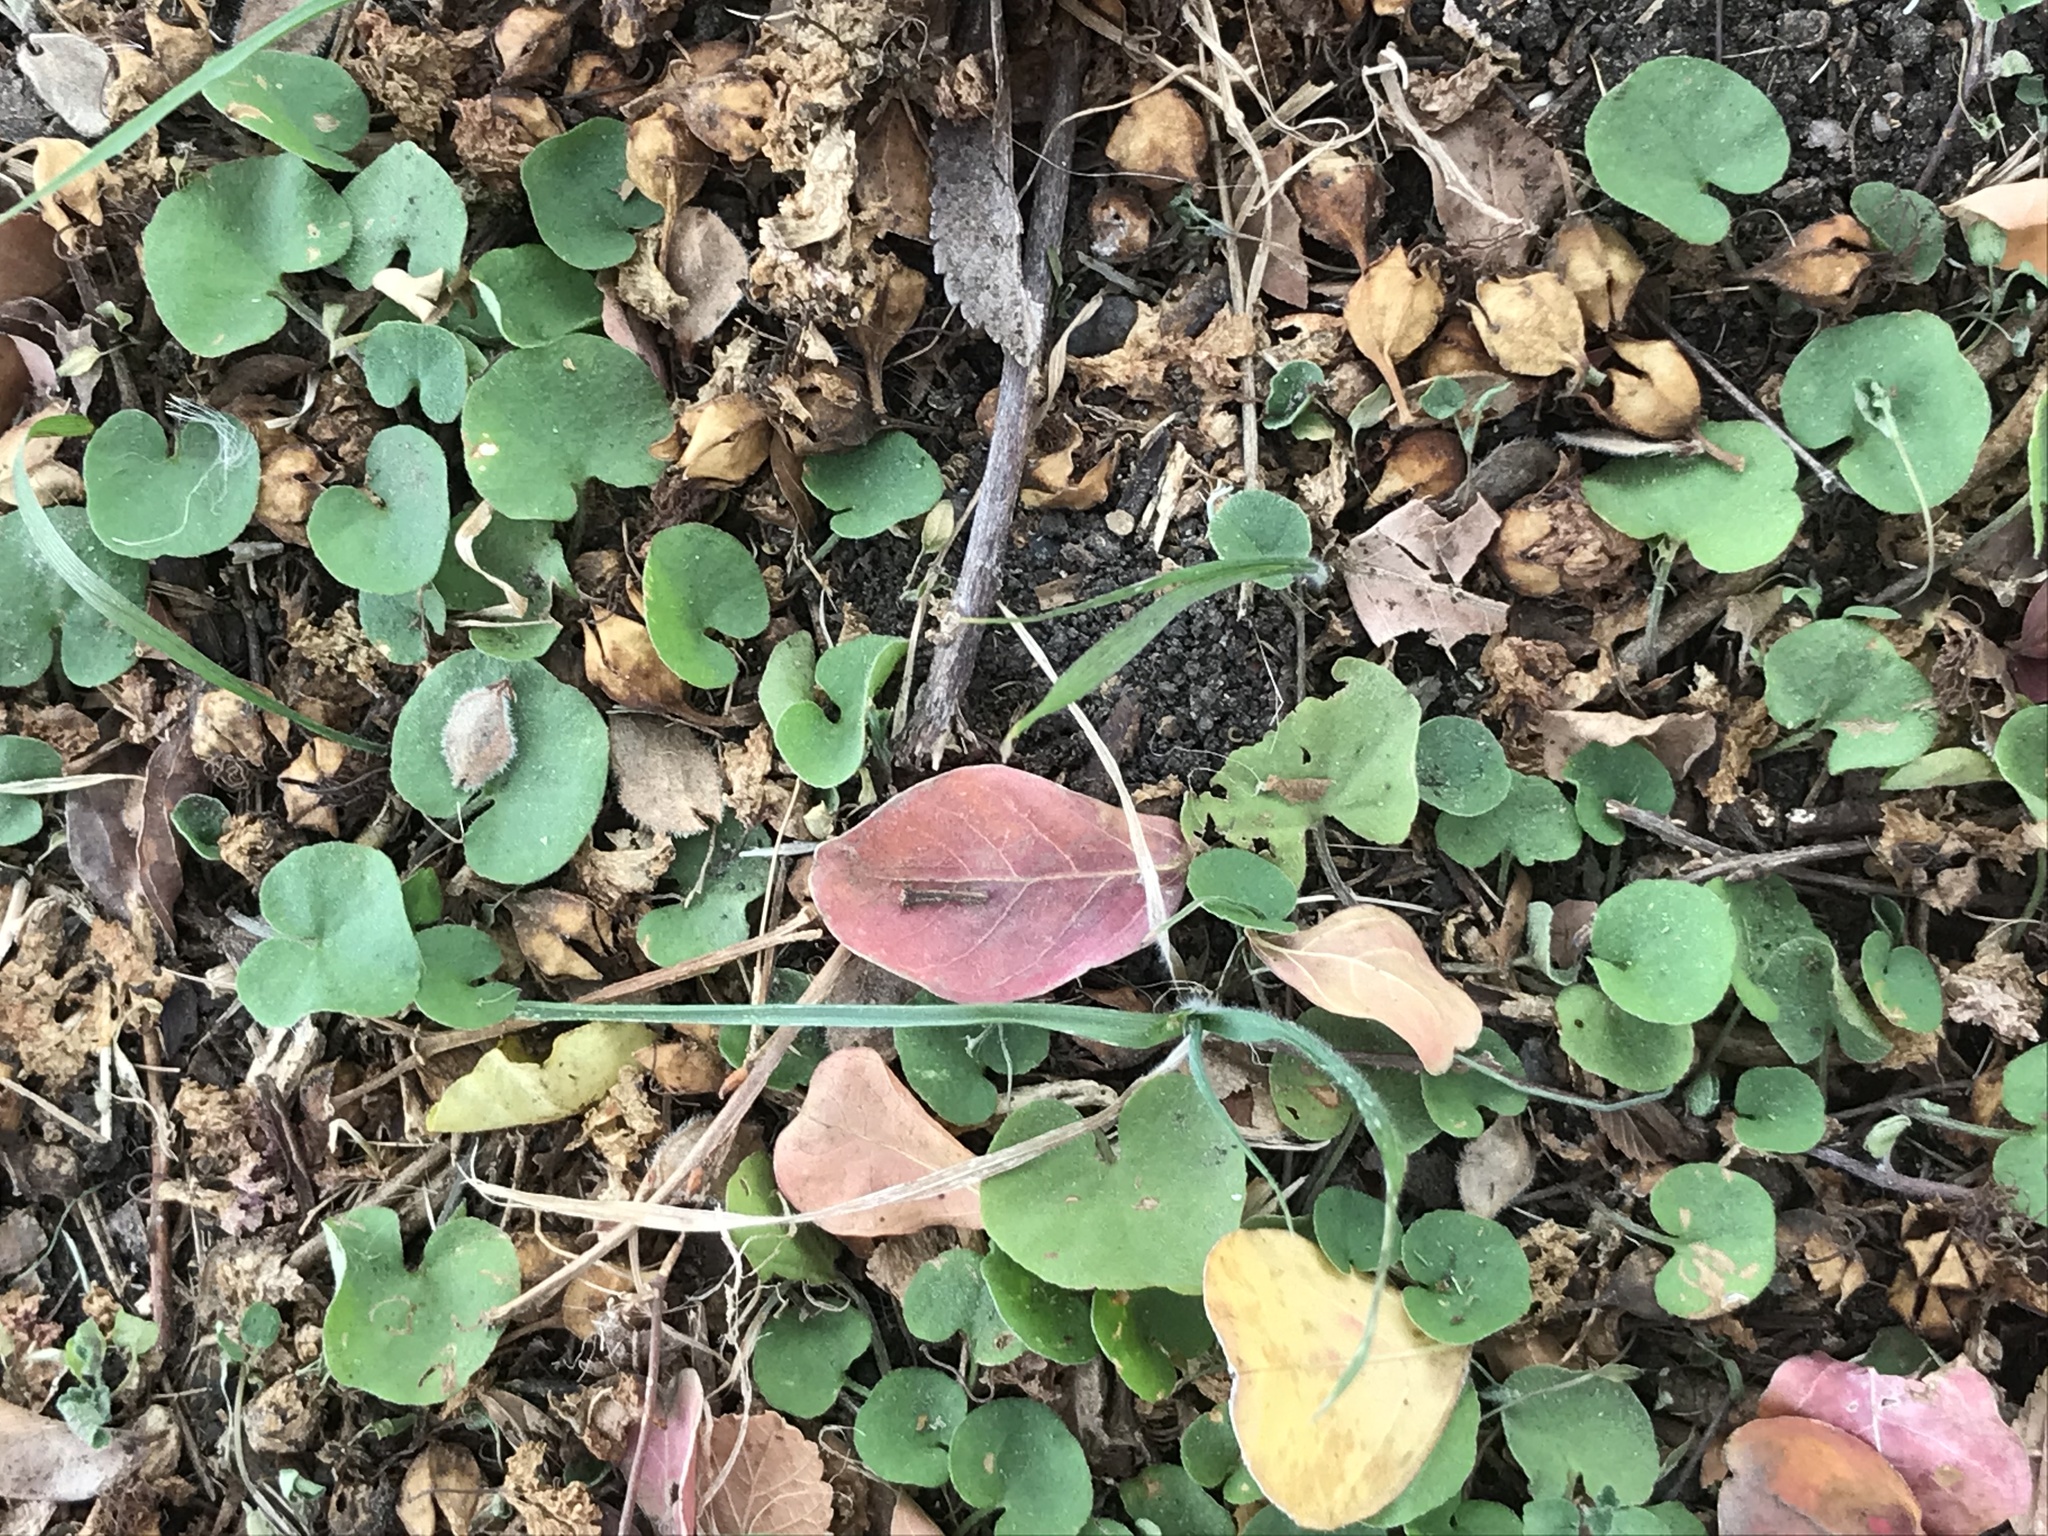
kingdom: Plantae
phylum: Tracheophyta
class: Magnoliopsida
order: Solanales
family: Convolvulaceae
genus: Dichondra
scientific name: Dichondra carolinensis
